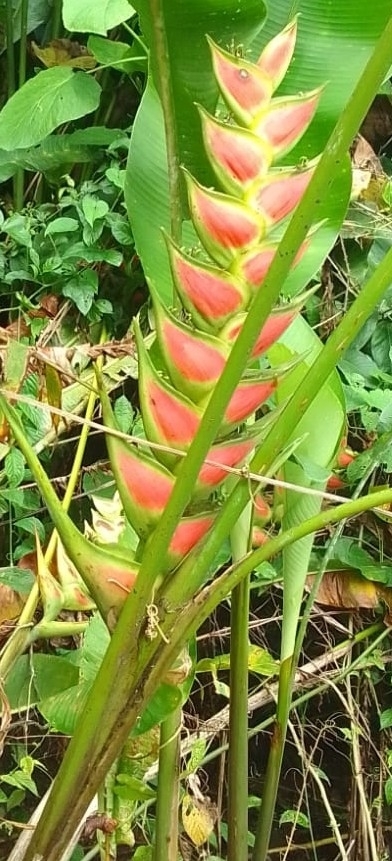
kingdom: Plantae
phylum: Tracheophyta
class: Liliopsida
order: Zingiberales
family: Heliconiaceae
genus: Heliconia
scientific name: Heliconia wagneriana
